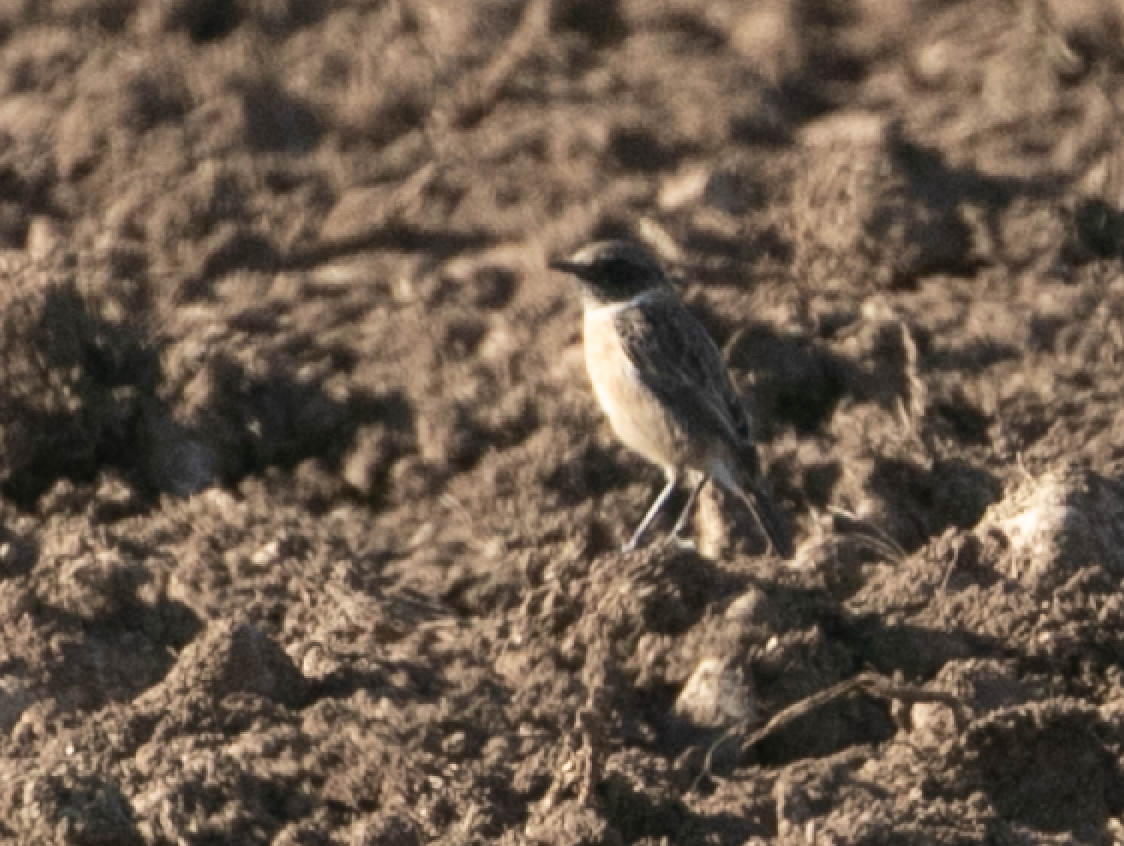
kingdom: Animalia
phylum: Chordata
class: Aves
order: Passeriformes
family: Muscicapidae
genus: Saxicola
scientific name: Saxicola rubicola
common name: European stonechat
